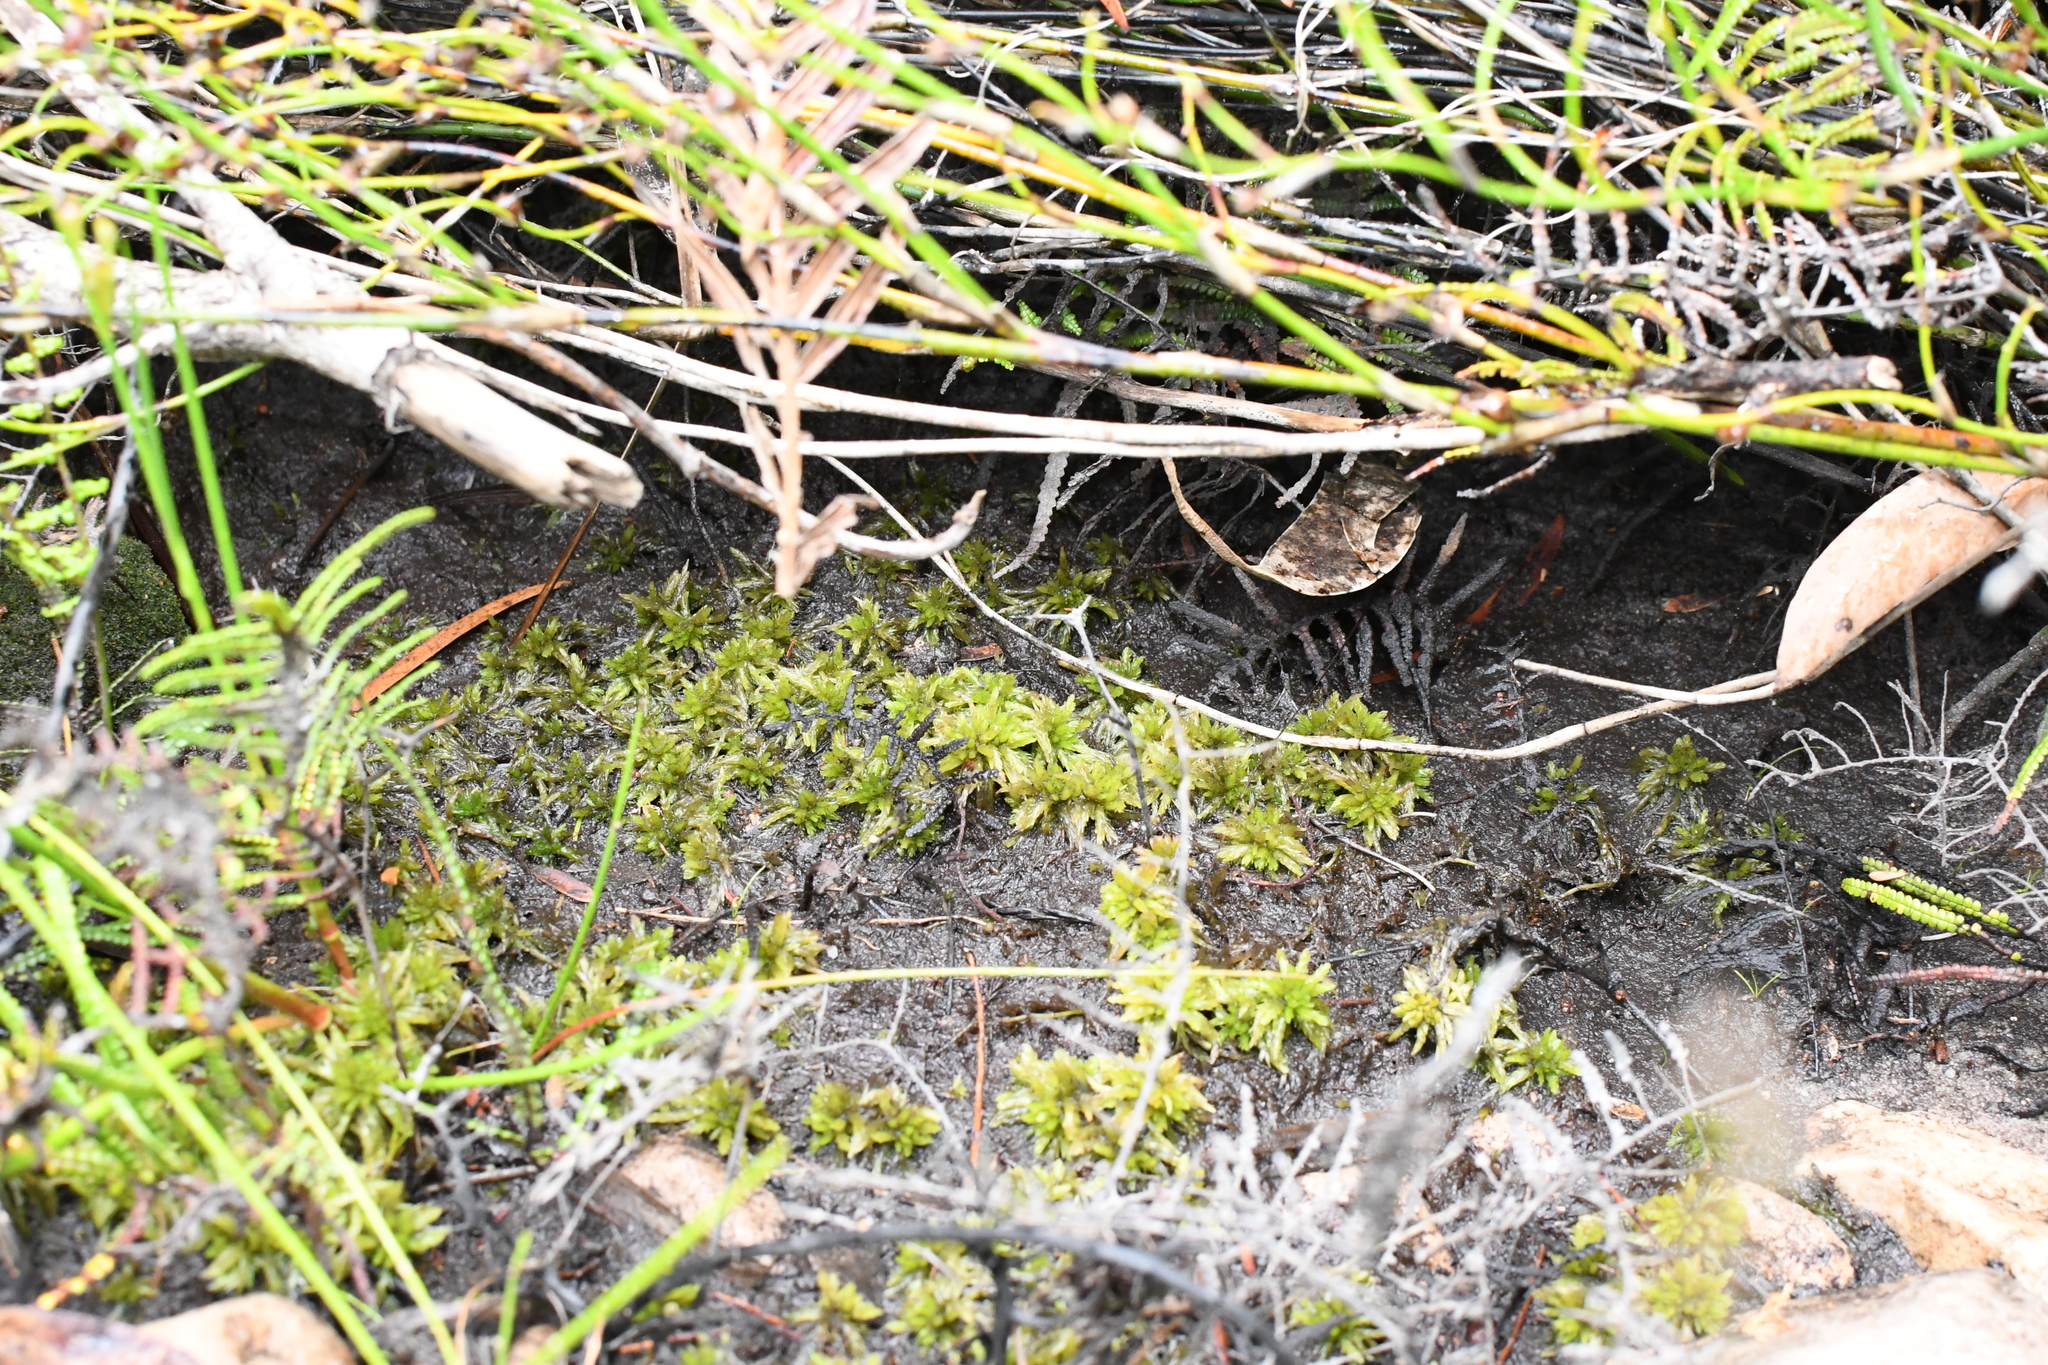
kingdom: Plantae
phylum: Bryophyta
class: Sphagnopsida
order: Sphagnales
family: Sphagnaceae
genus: Sphagnum
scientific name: Sphagnum novozelandicum
